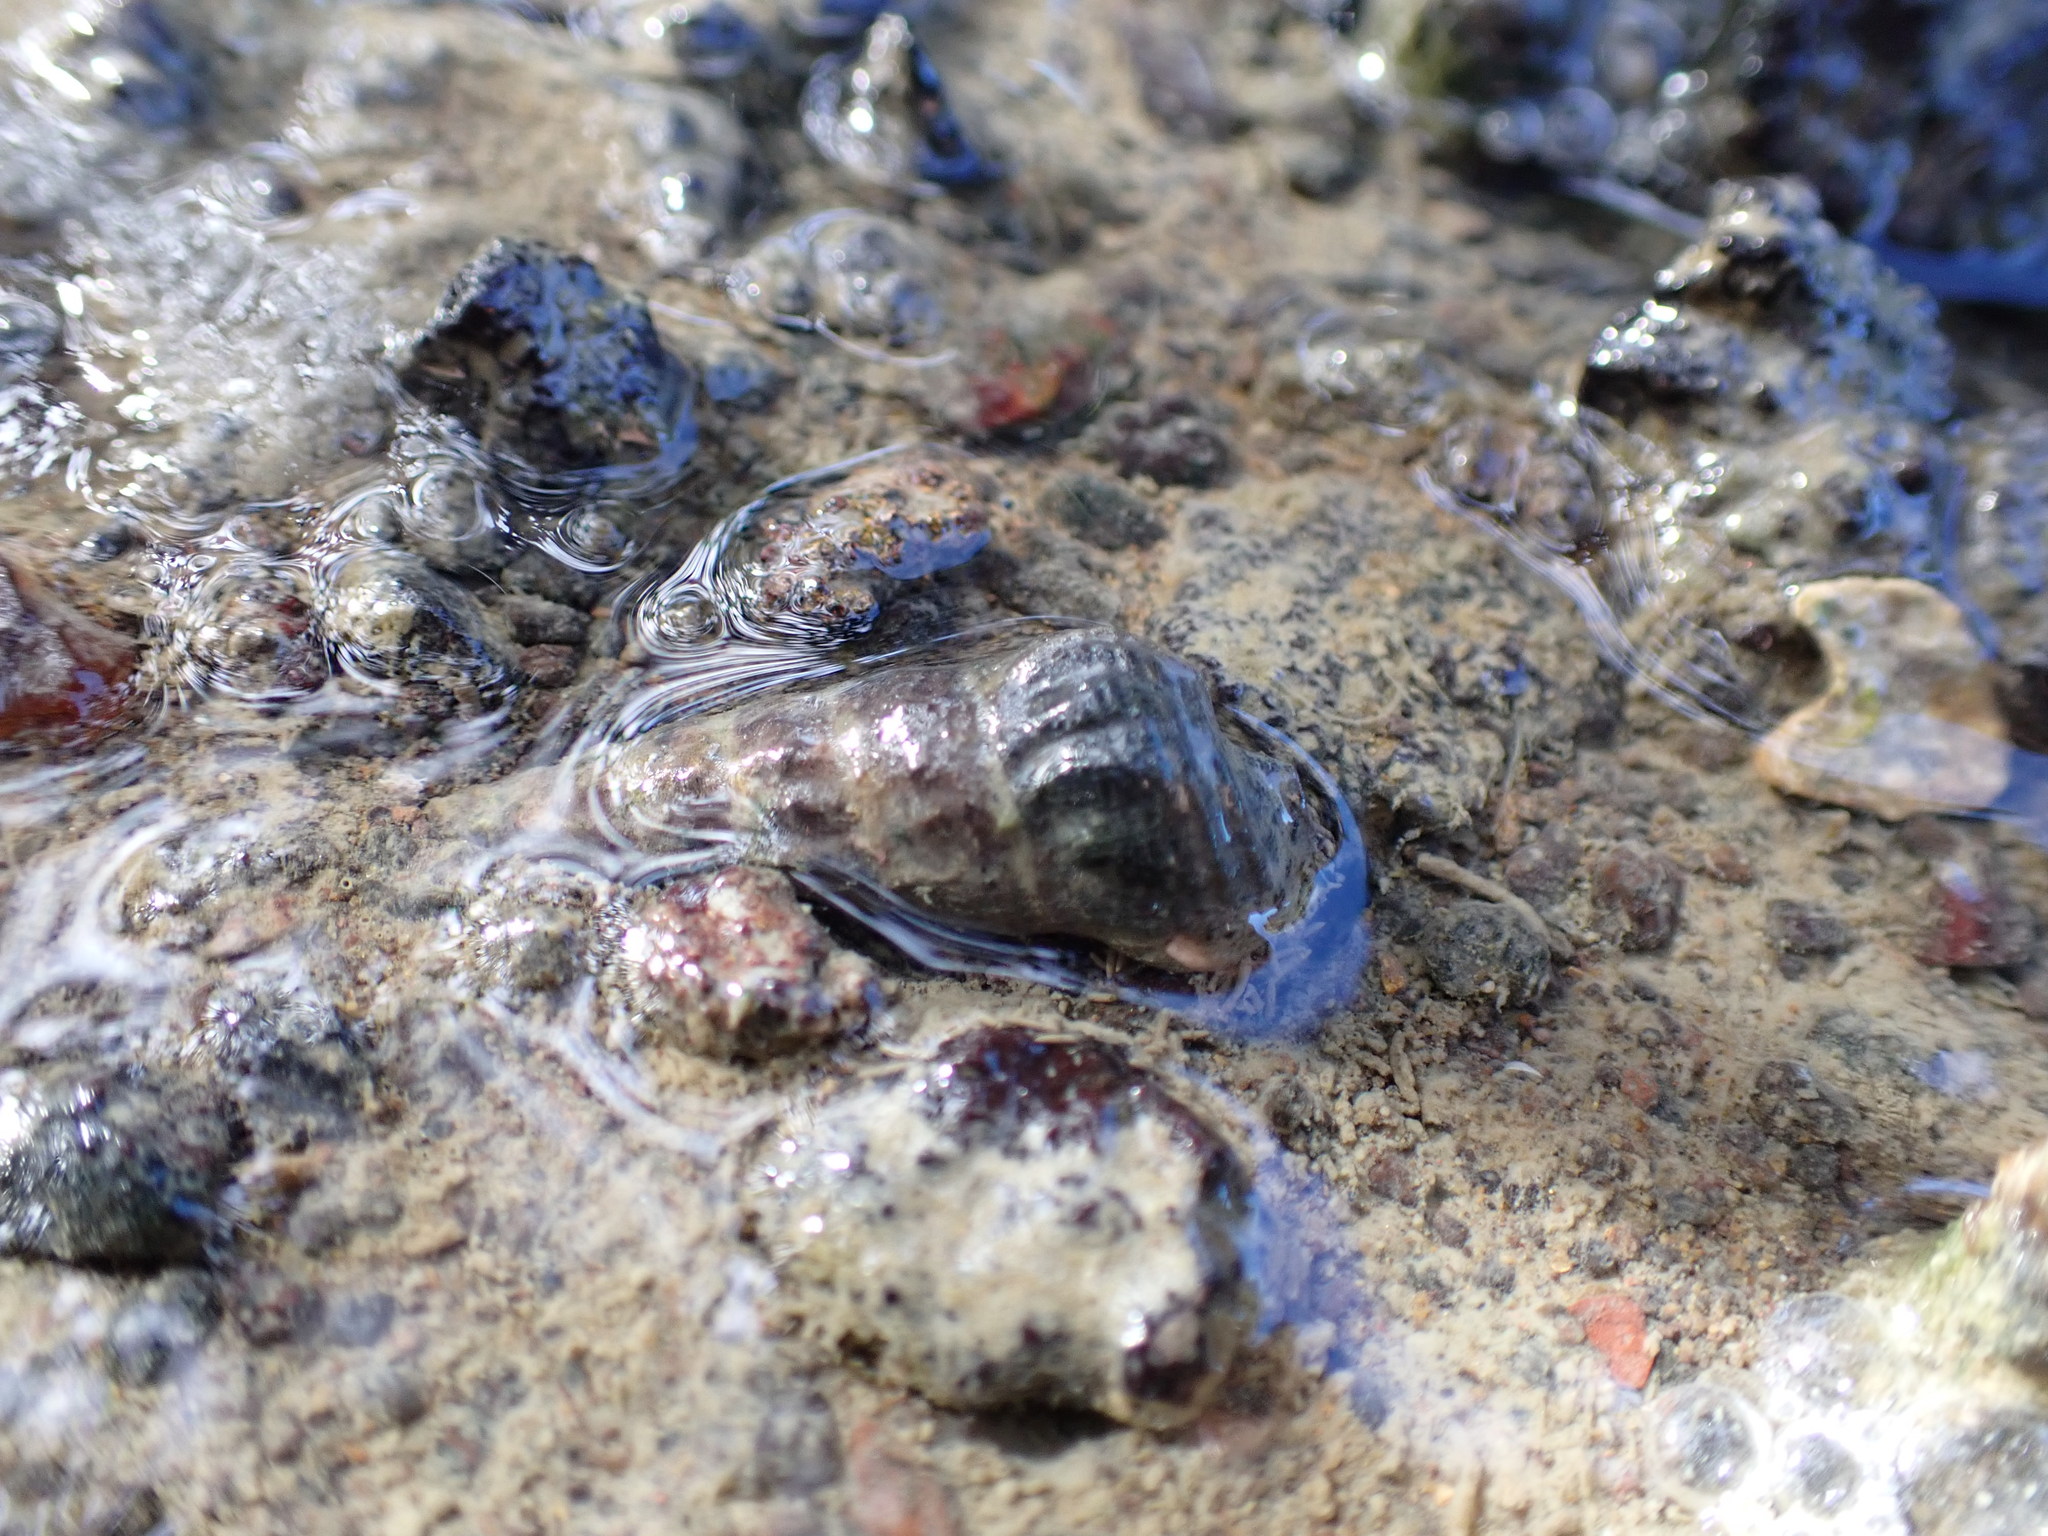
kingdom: Animalia
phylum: Mollusca
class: Gastropoda
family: Batillariidae
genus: Zeacumantus
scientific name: Zeacumantus lutulentus
